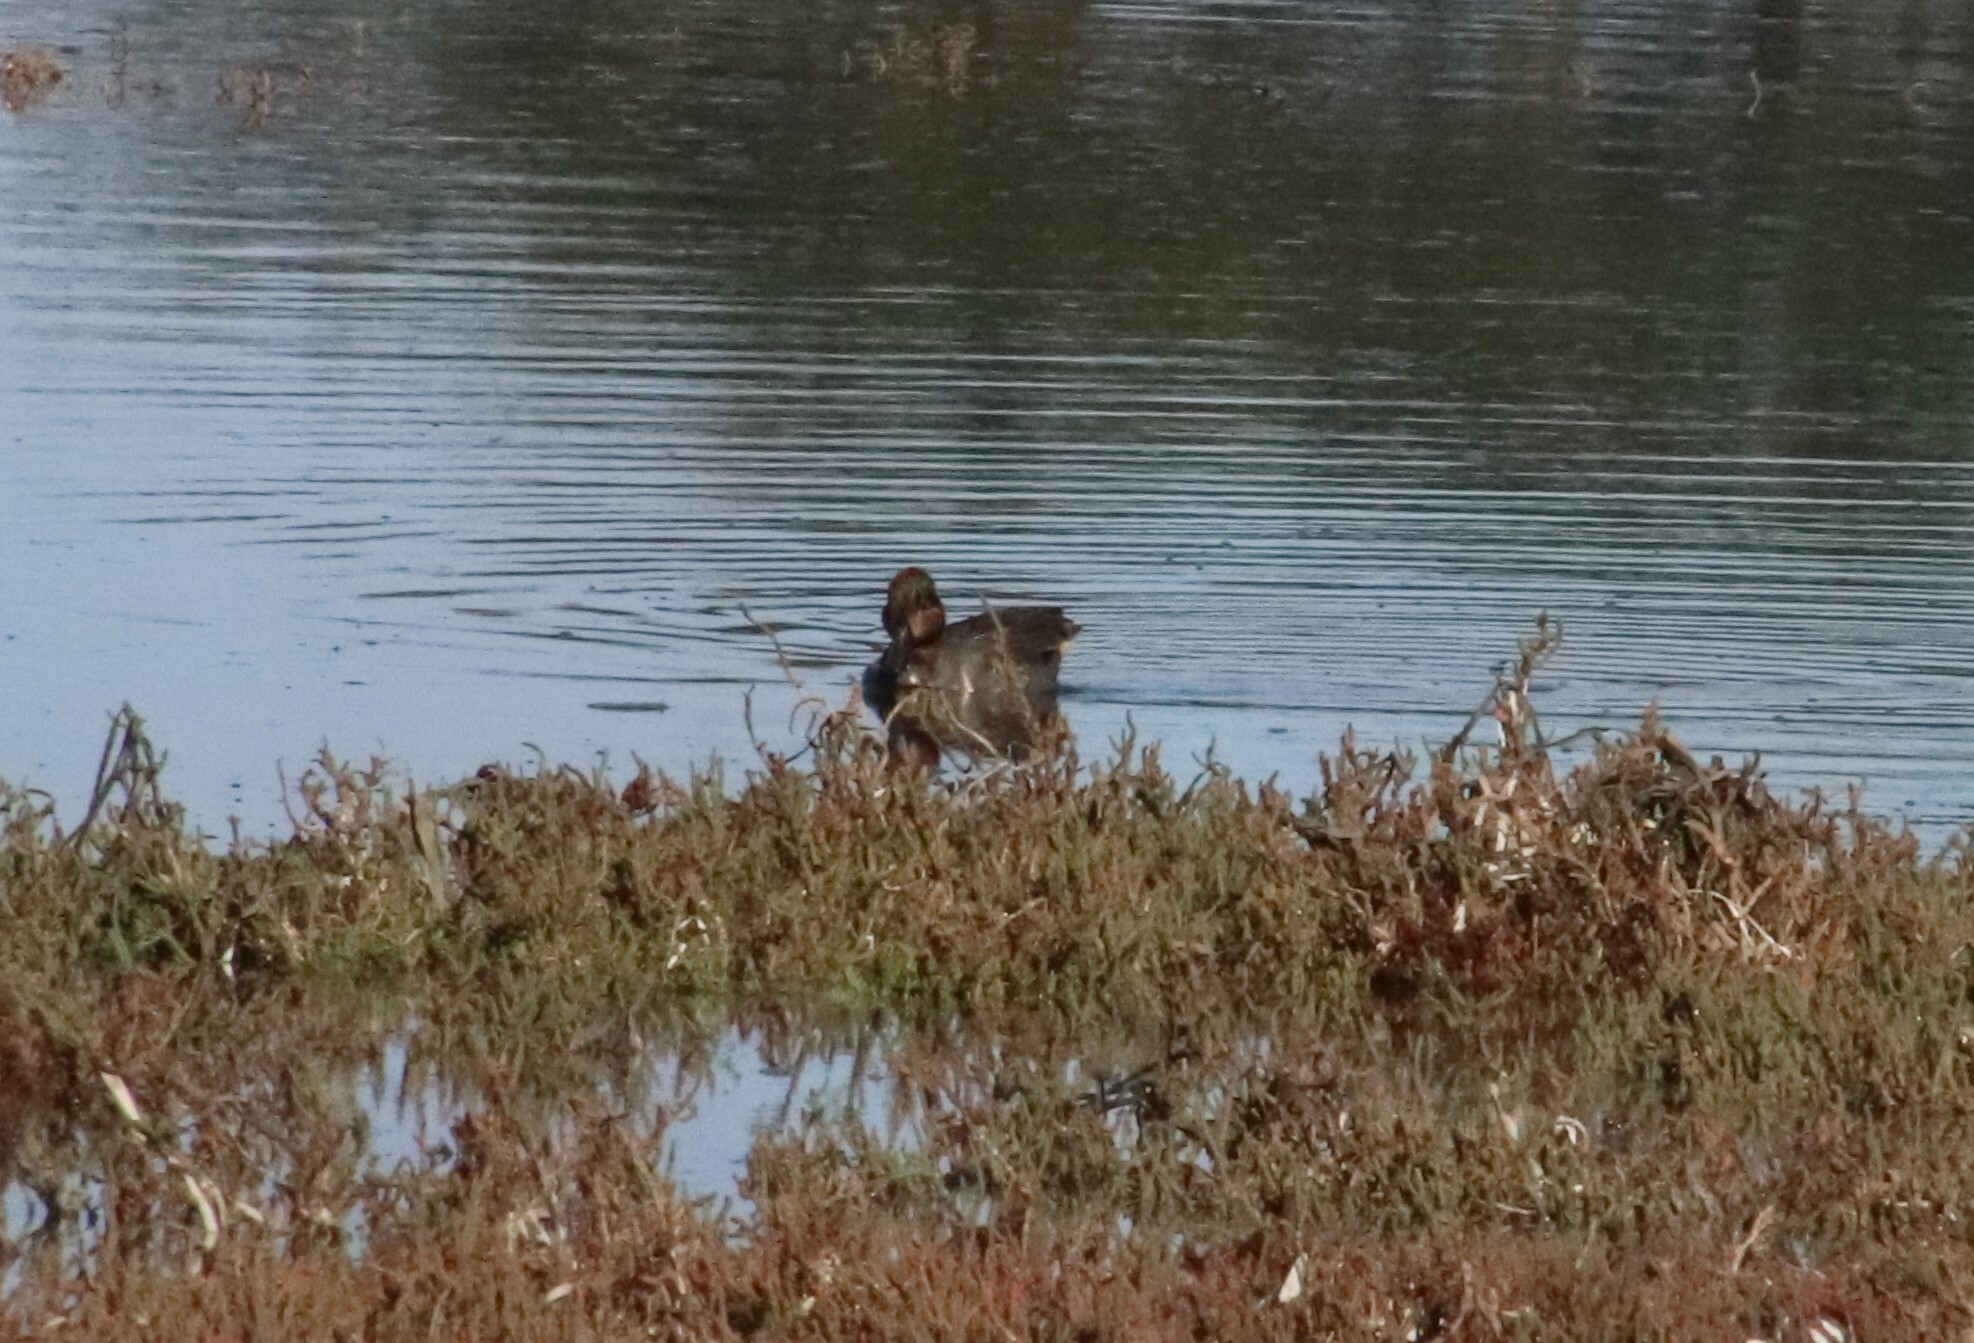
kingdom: Animalia
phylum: Chordata
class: Aves
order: Anseriformes
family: Anatidae
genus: Anas
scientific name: Anas crecca
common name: Eurasian teal
